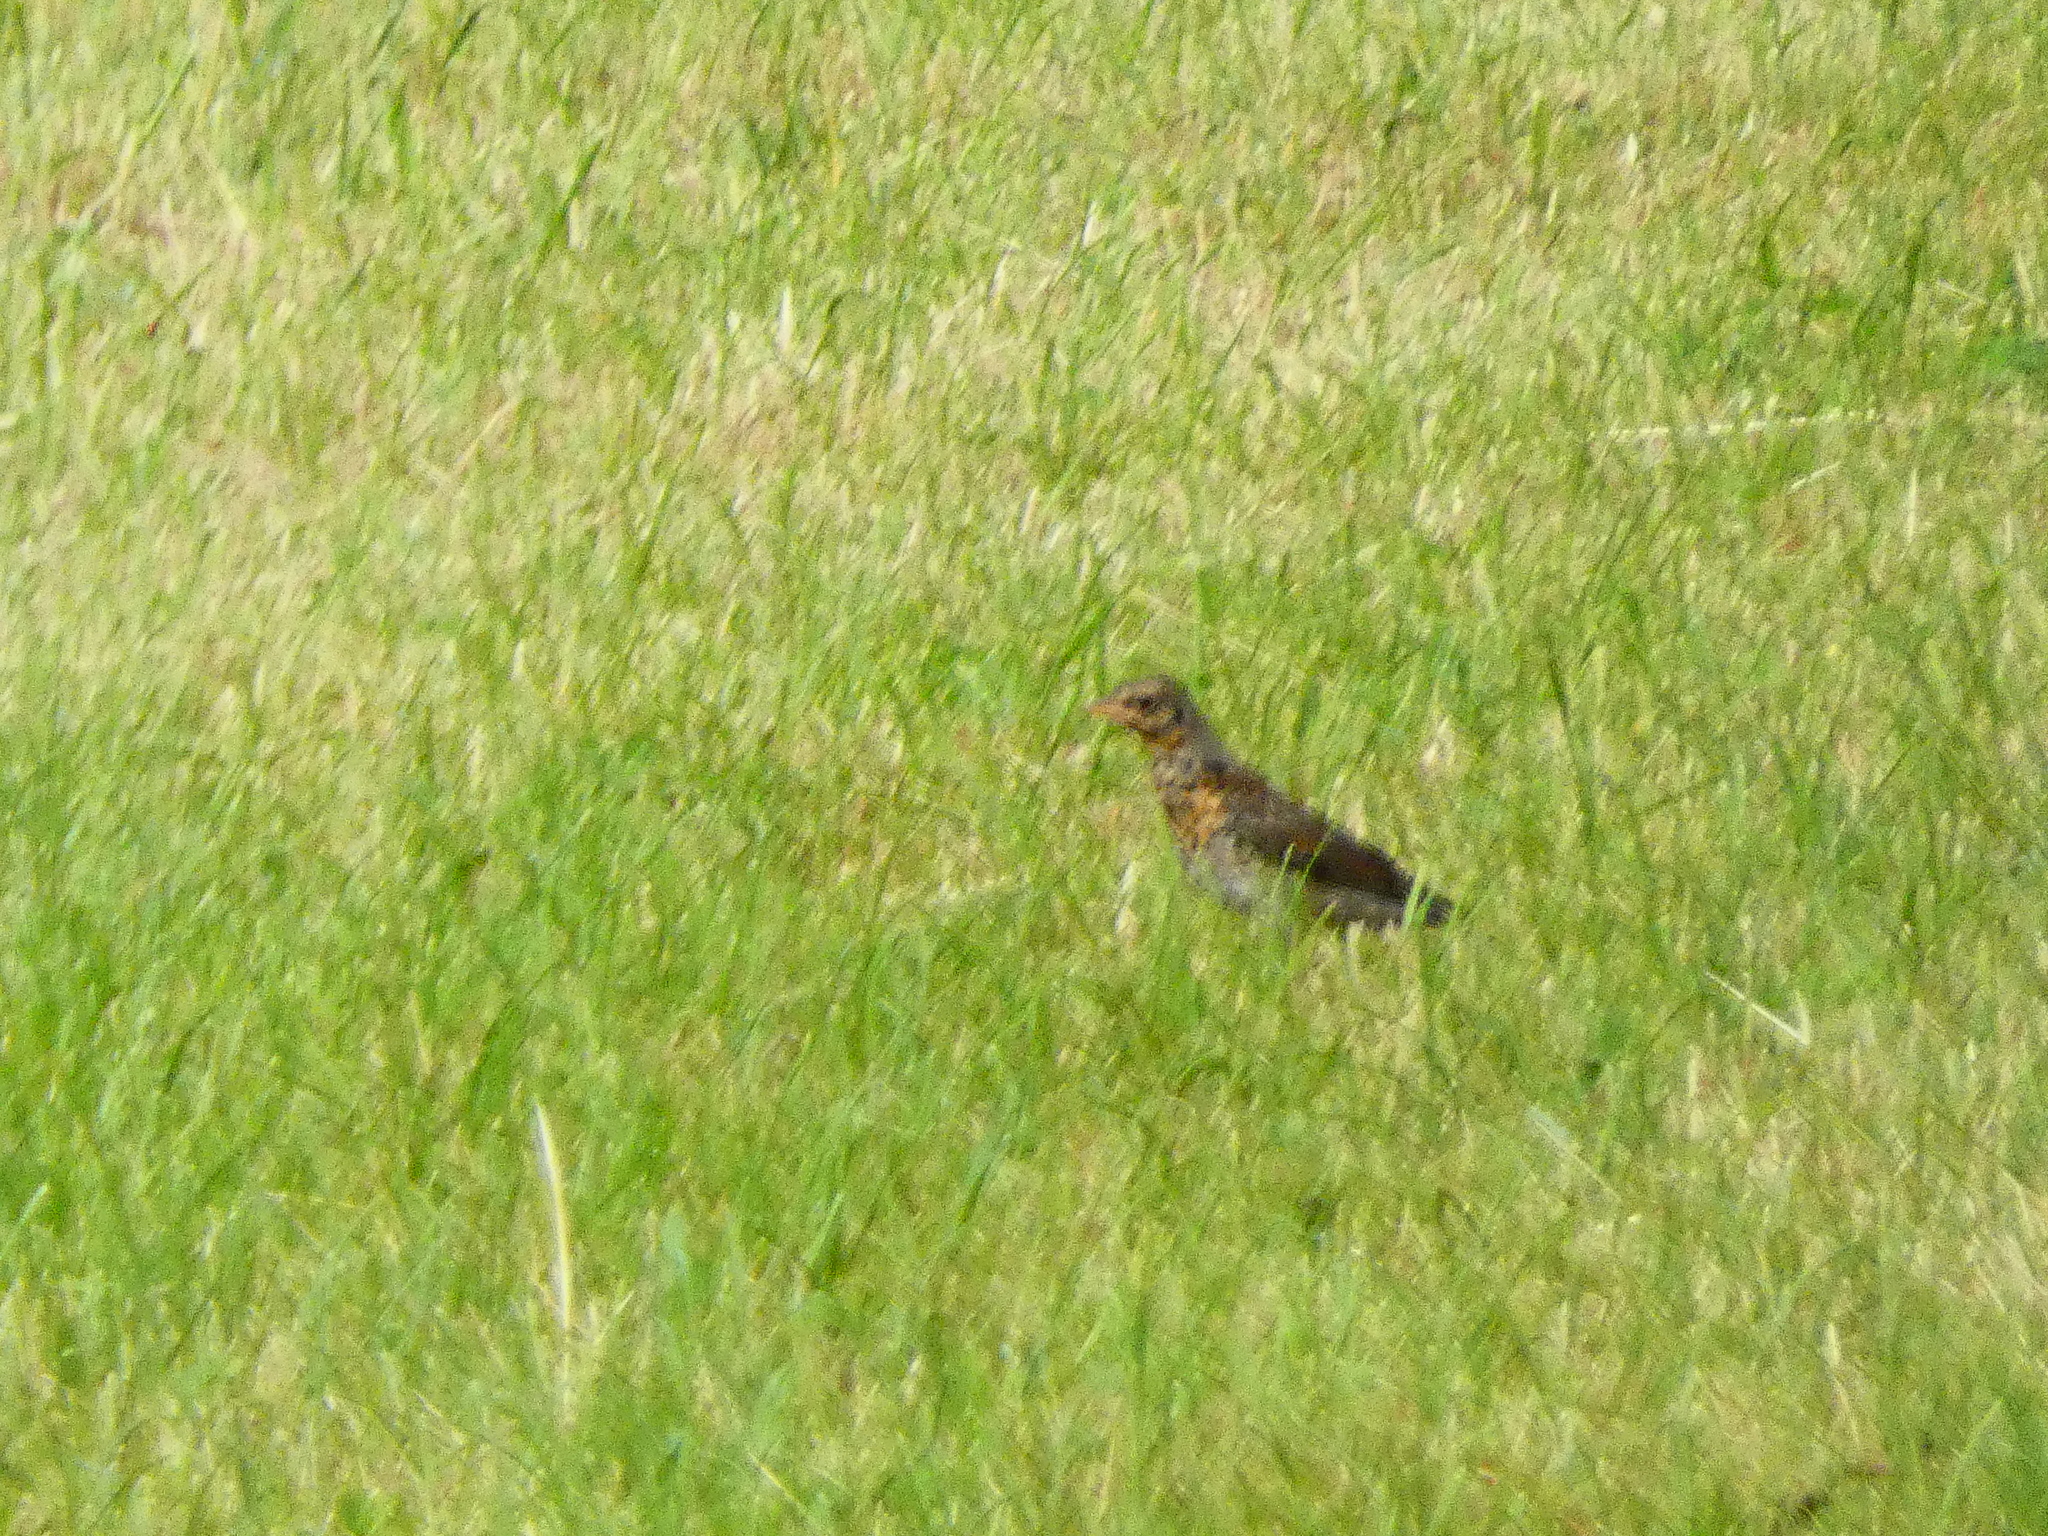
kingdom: Animalia
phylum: Chordata
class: Aves
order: Passeriformes
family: Turdidae
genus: Turdus
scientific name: Turdus pilaris
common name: Fieldfare
